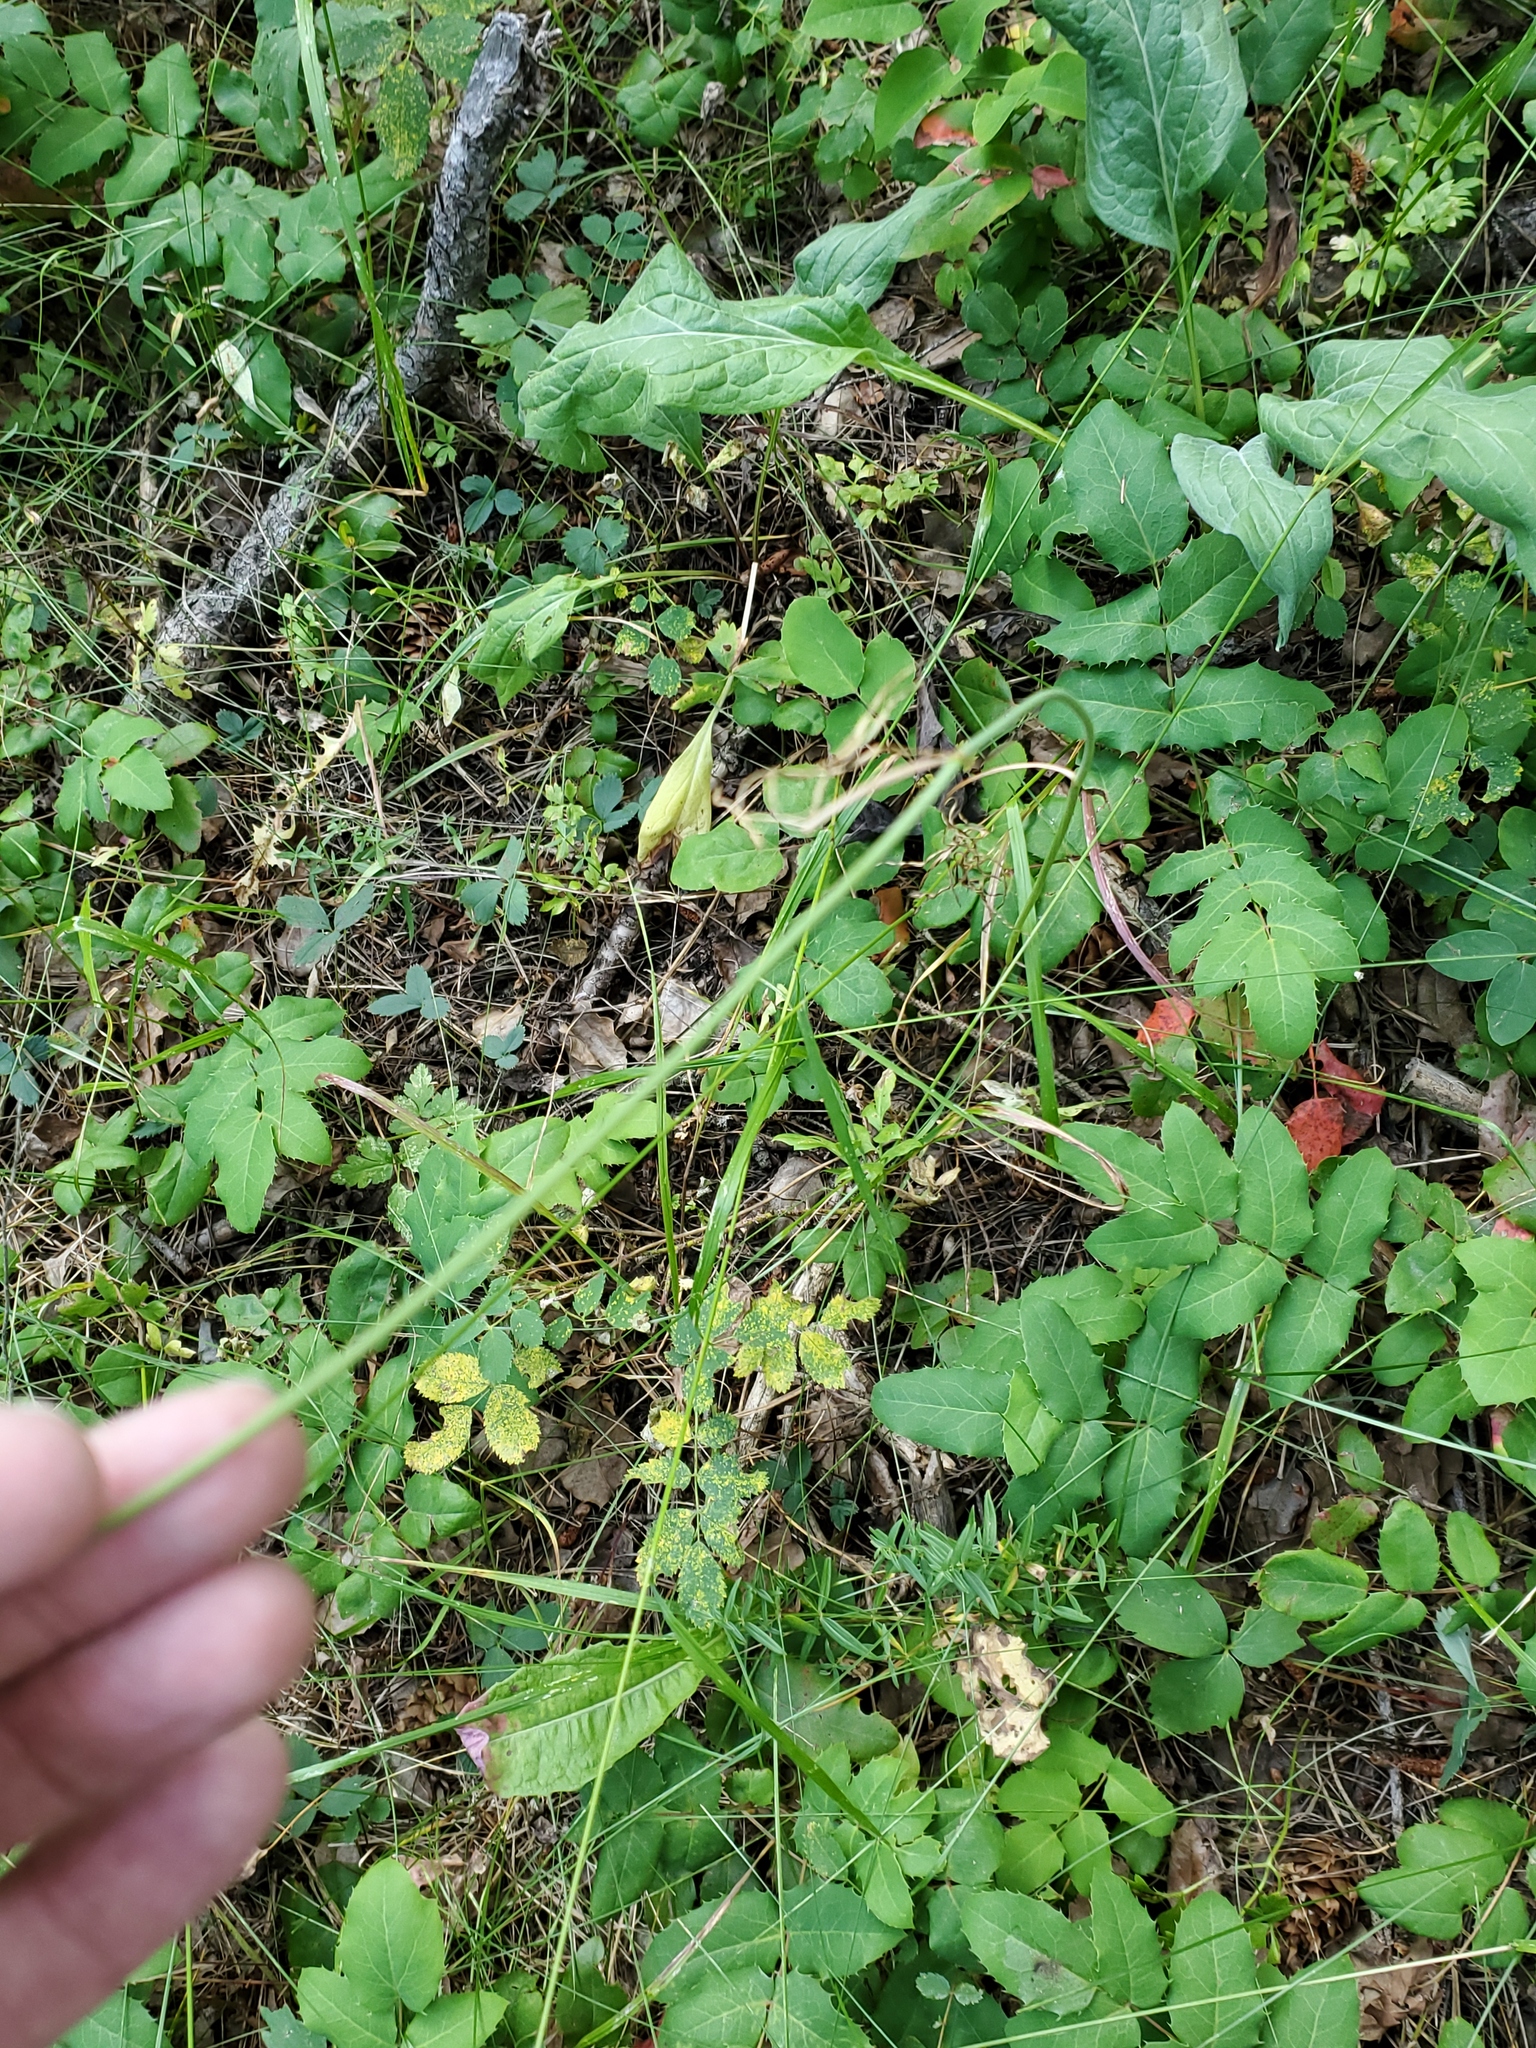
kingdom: Plantae
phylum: Tracheophyta
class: Magnoliopsida
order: Apiales
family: Apiaceae
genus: Perideridia
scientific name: Perideridia gairdneri
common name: False caraway
